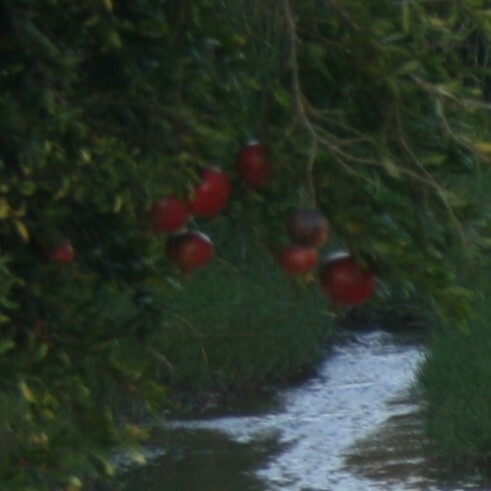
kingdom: Plantae
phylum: Tracheophyta
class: Magnoliopsida
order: Myrtales
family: Lythraceae
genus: Punica
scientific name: Punica granatum
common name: Pomegranate
